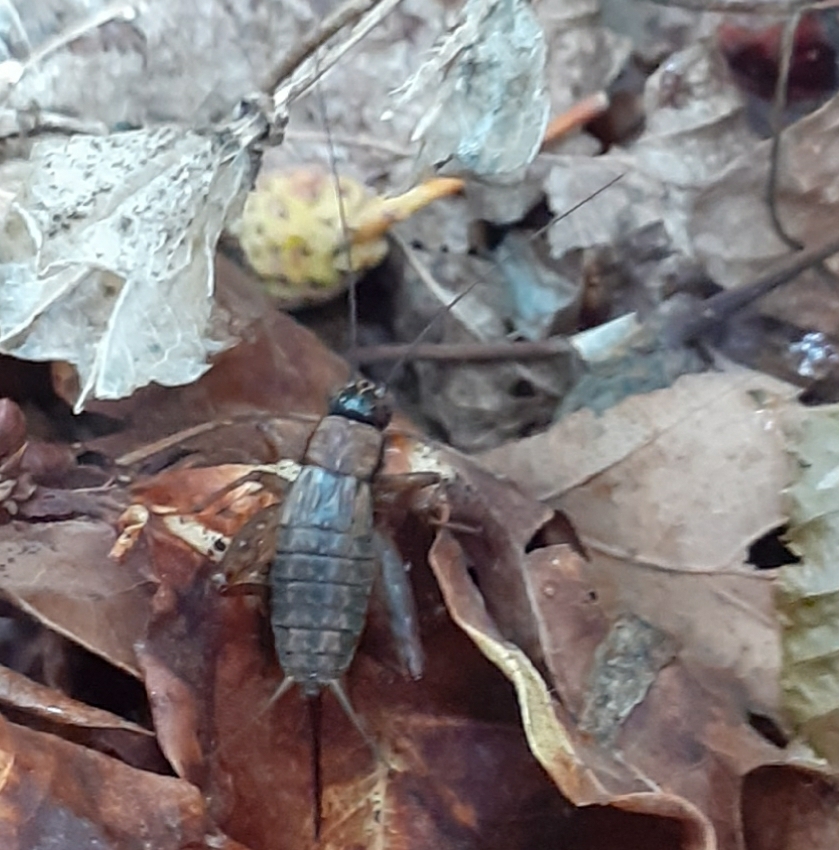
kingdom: Animalia
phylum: Arthropoda
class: Insecta
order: Orthoptera
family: Trigonidiidae
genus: Nemobius
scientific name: Nemobius sylvestris
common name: Wood-cricket
